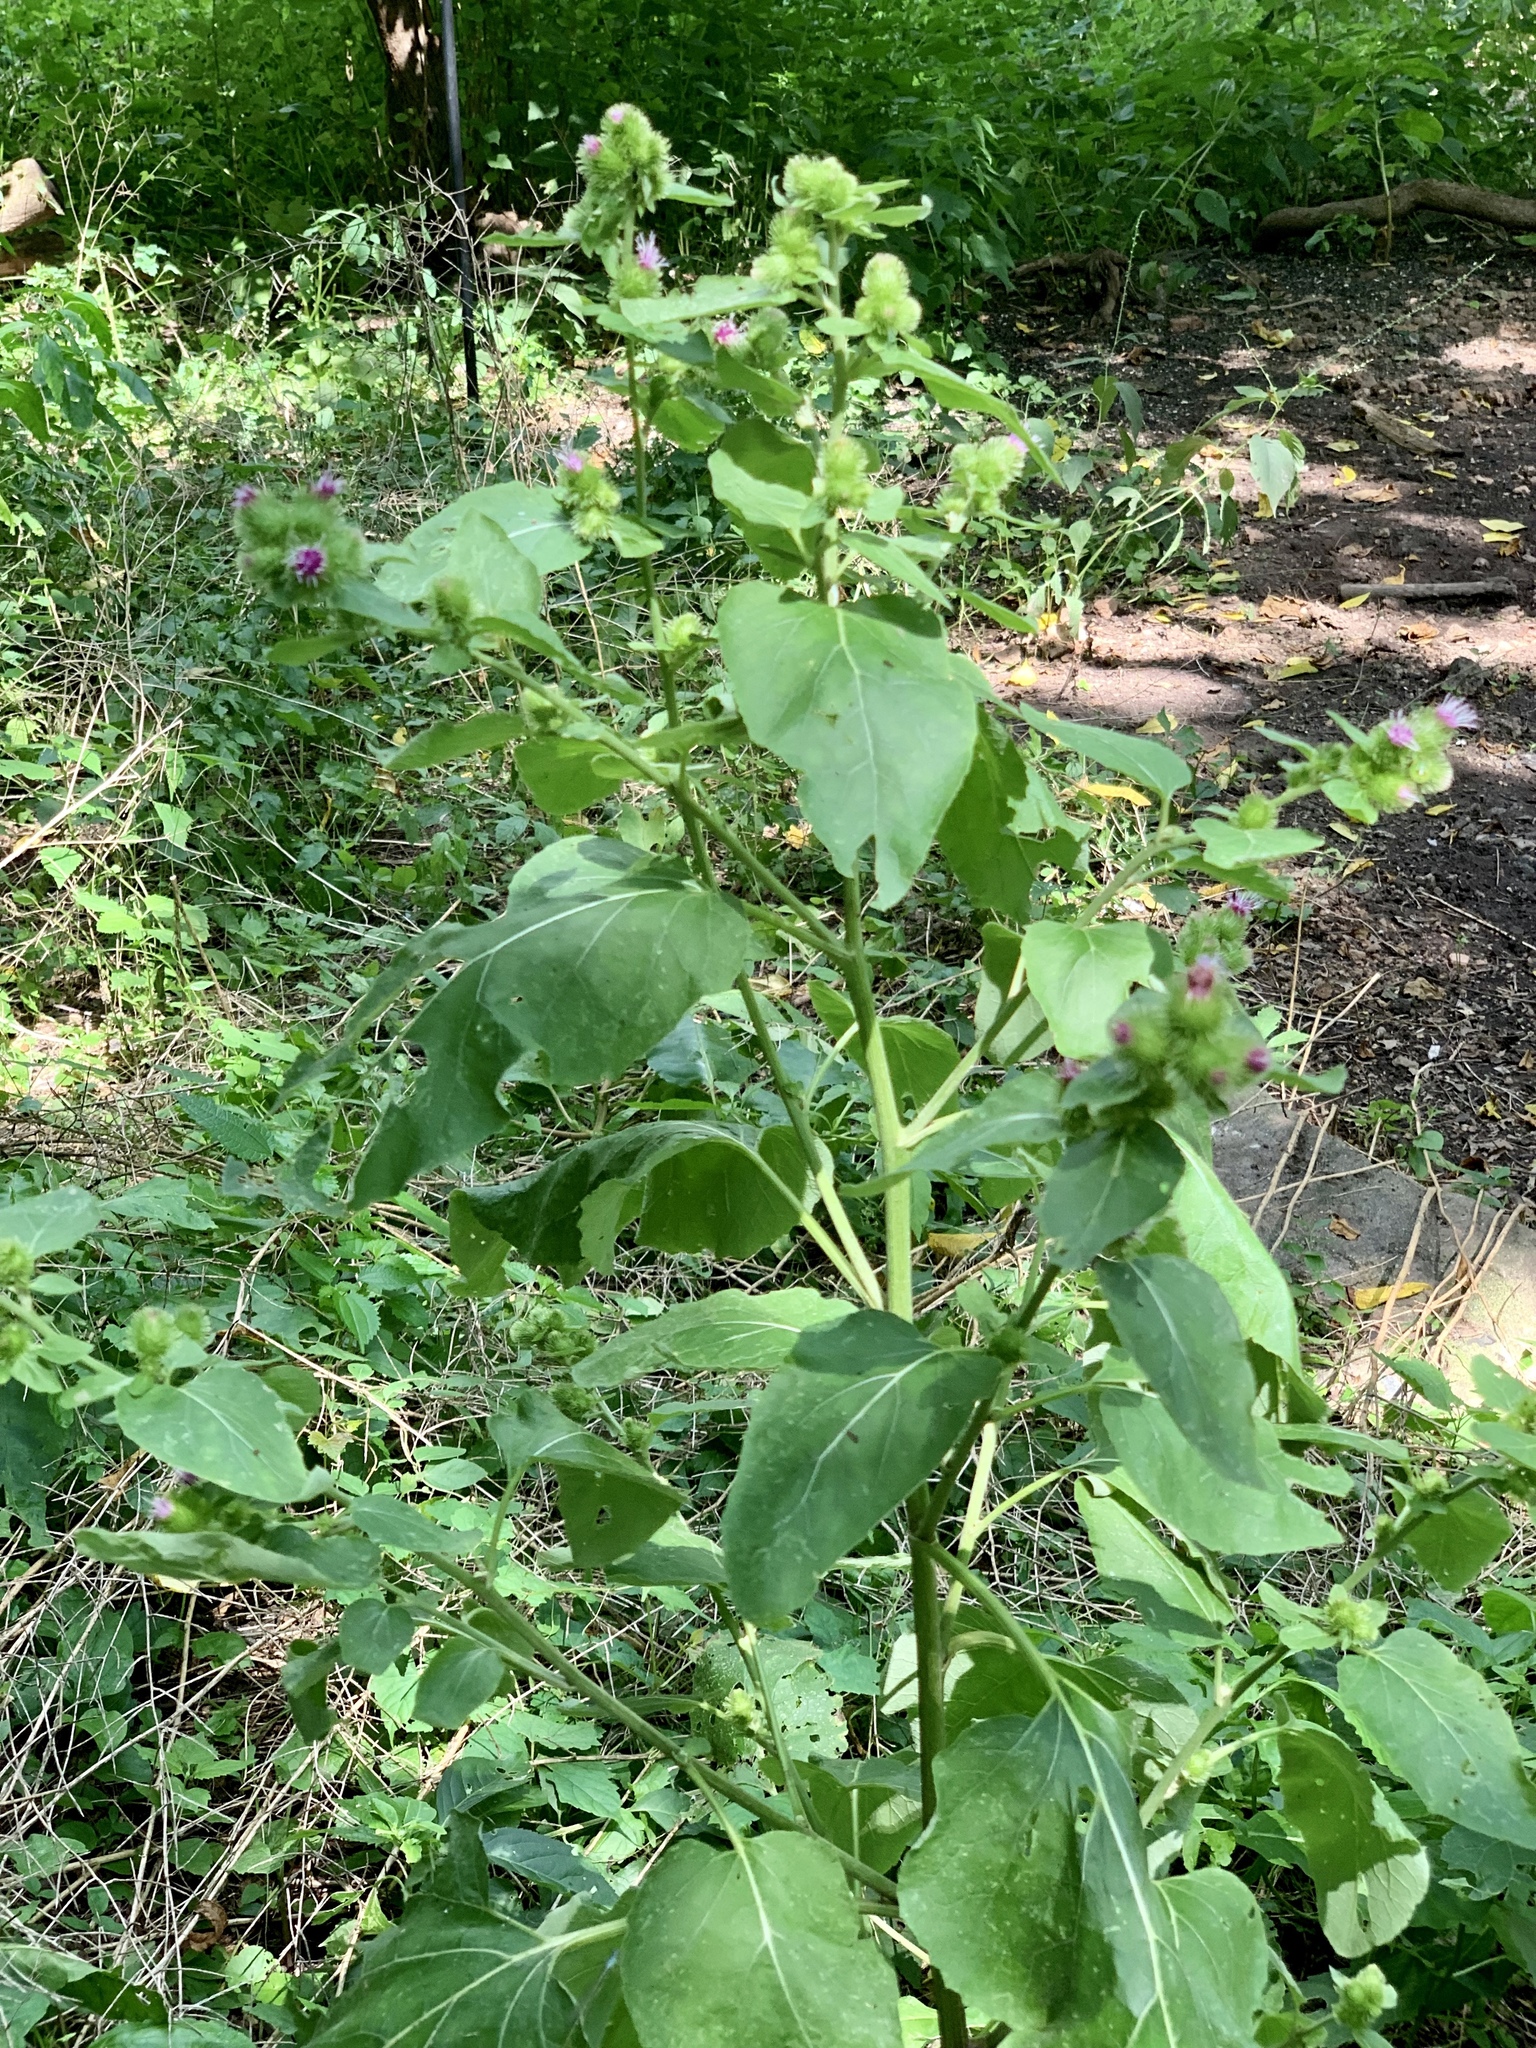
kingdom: Plantae
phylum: Tracheophyta
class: Magnoliopsida
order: Asterales
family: Asteraceae
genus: Arctium
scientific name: Arctium minus
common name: Lesser burdock
